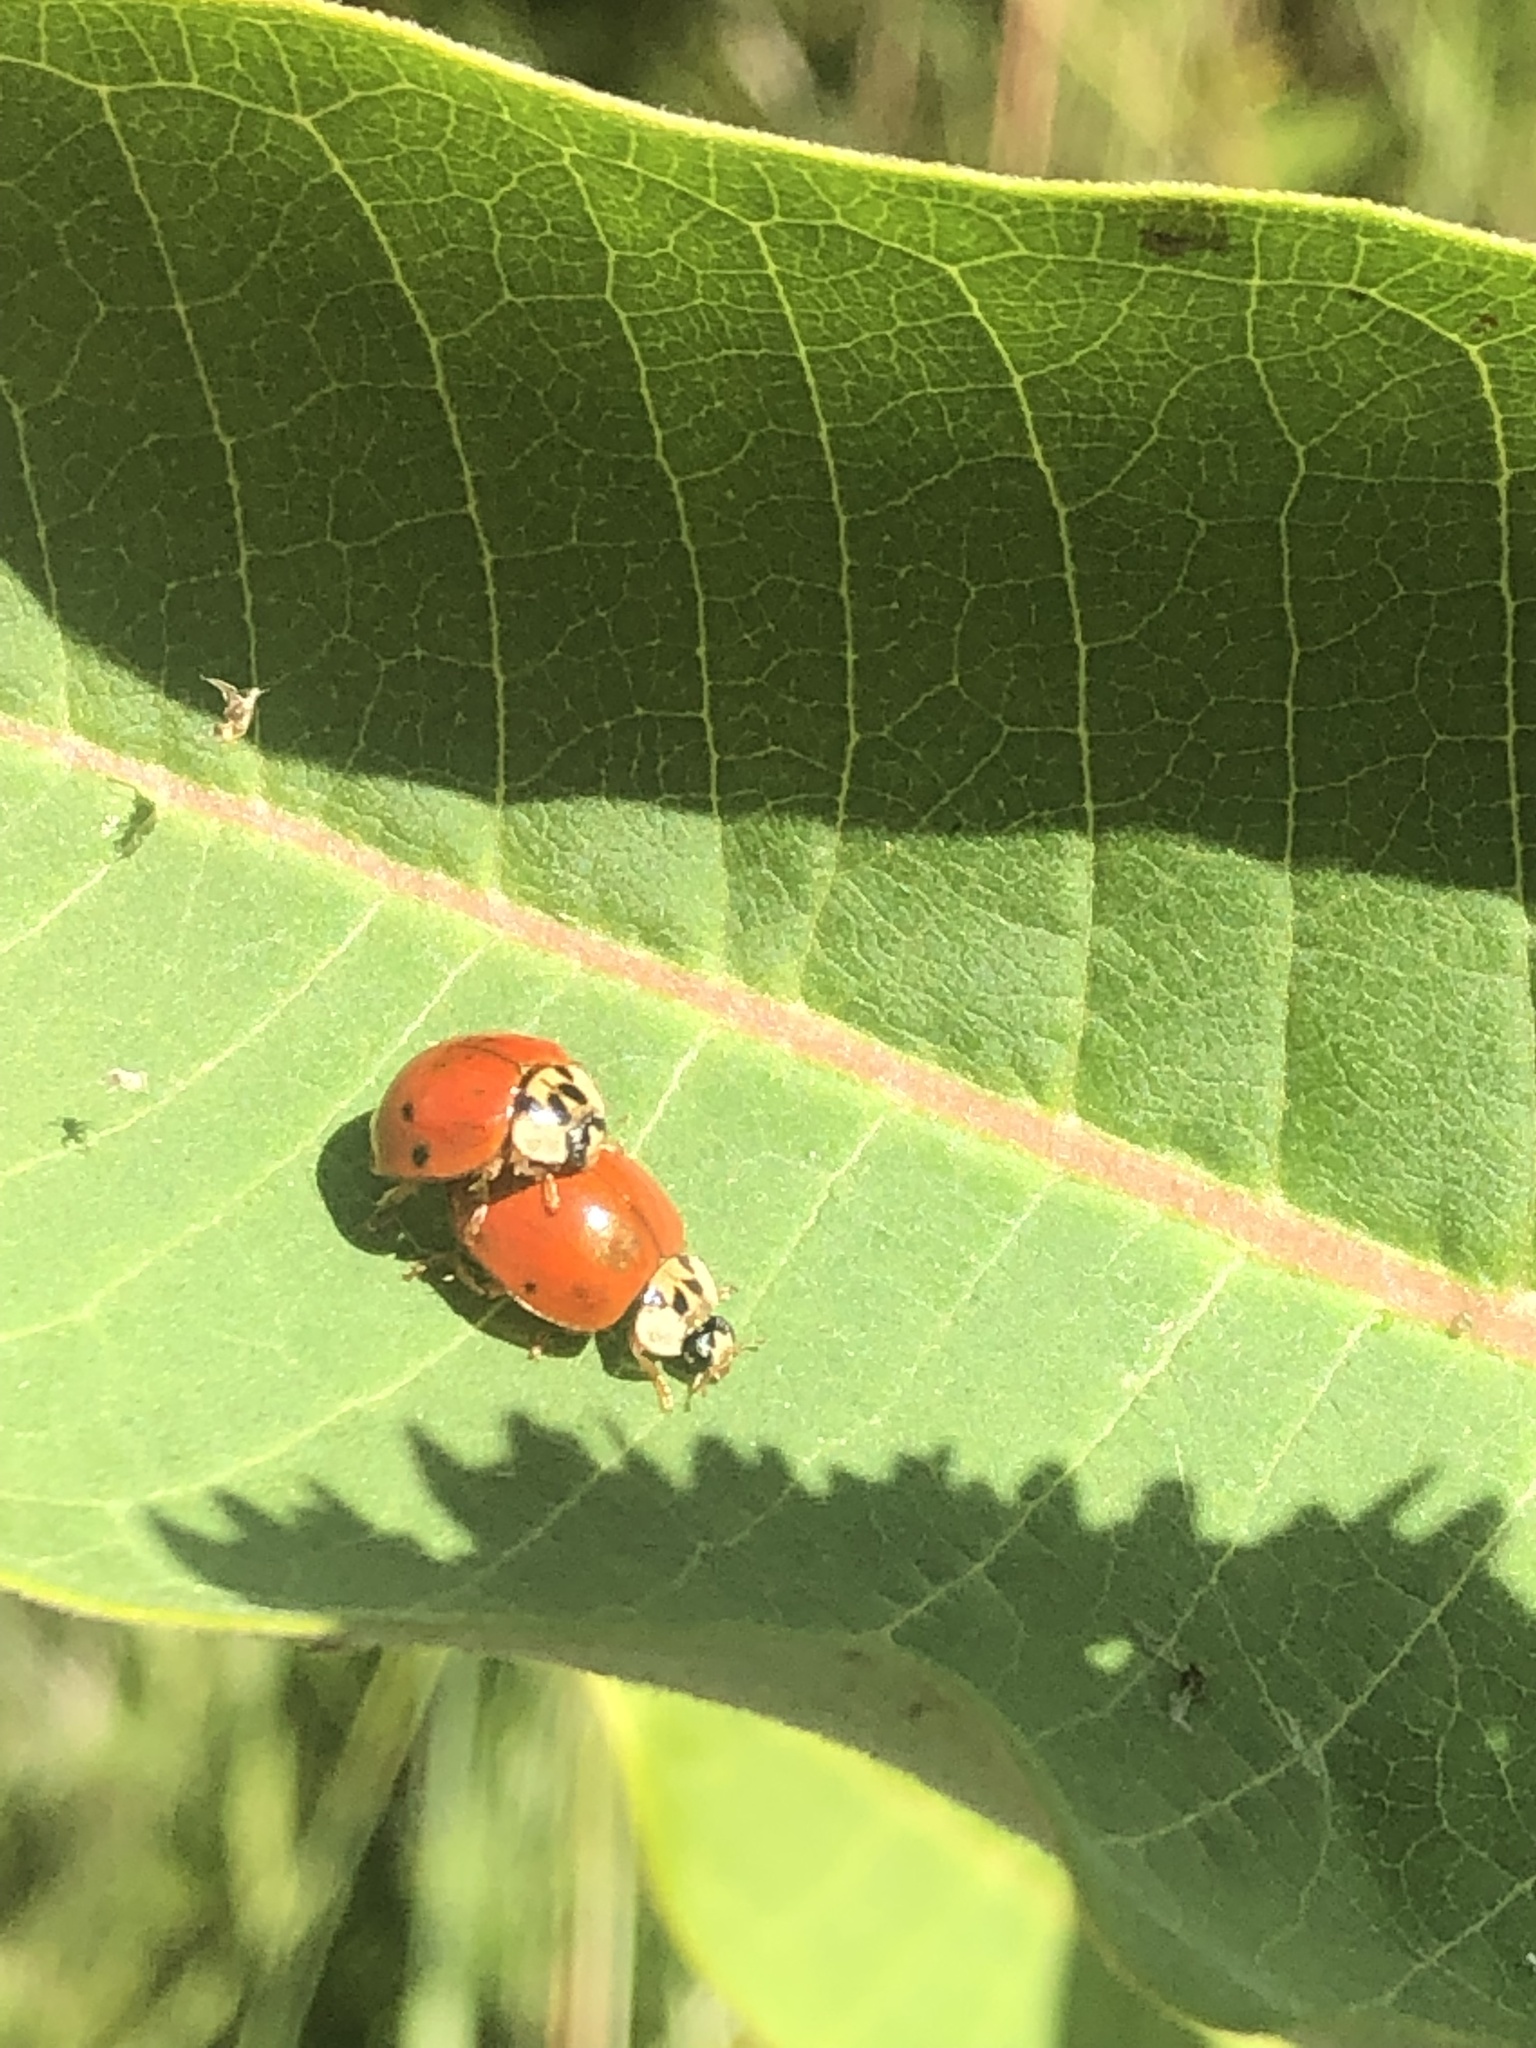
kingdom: Animalia
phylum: Arthropoda
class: Insecta
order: Coleoptera
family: Coccinellidae
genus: Harmonia
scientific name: Harmonia axyridis
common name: Harlequin ladybird
